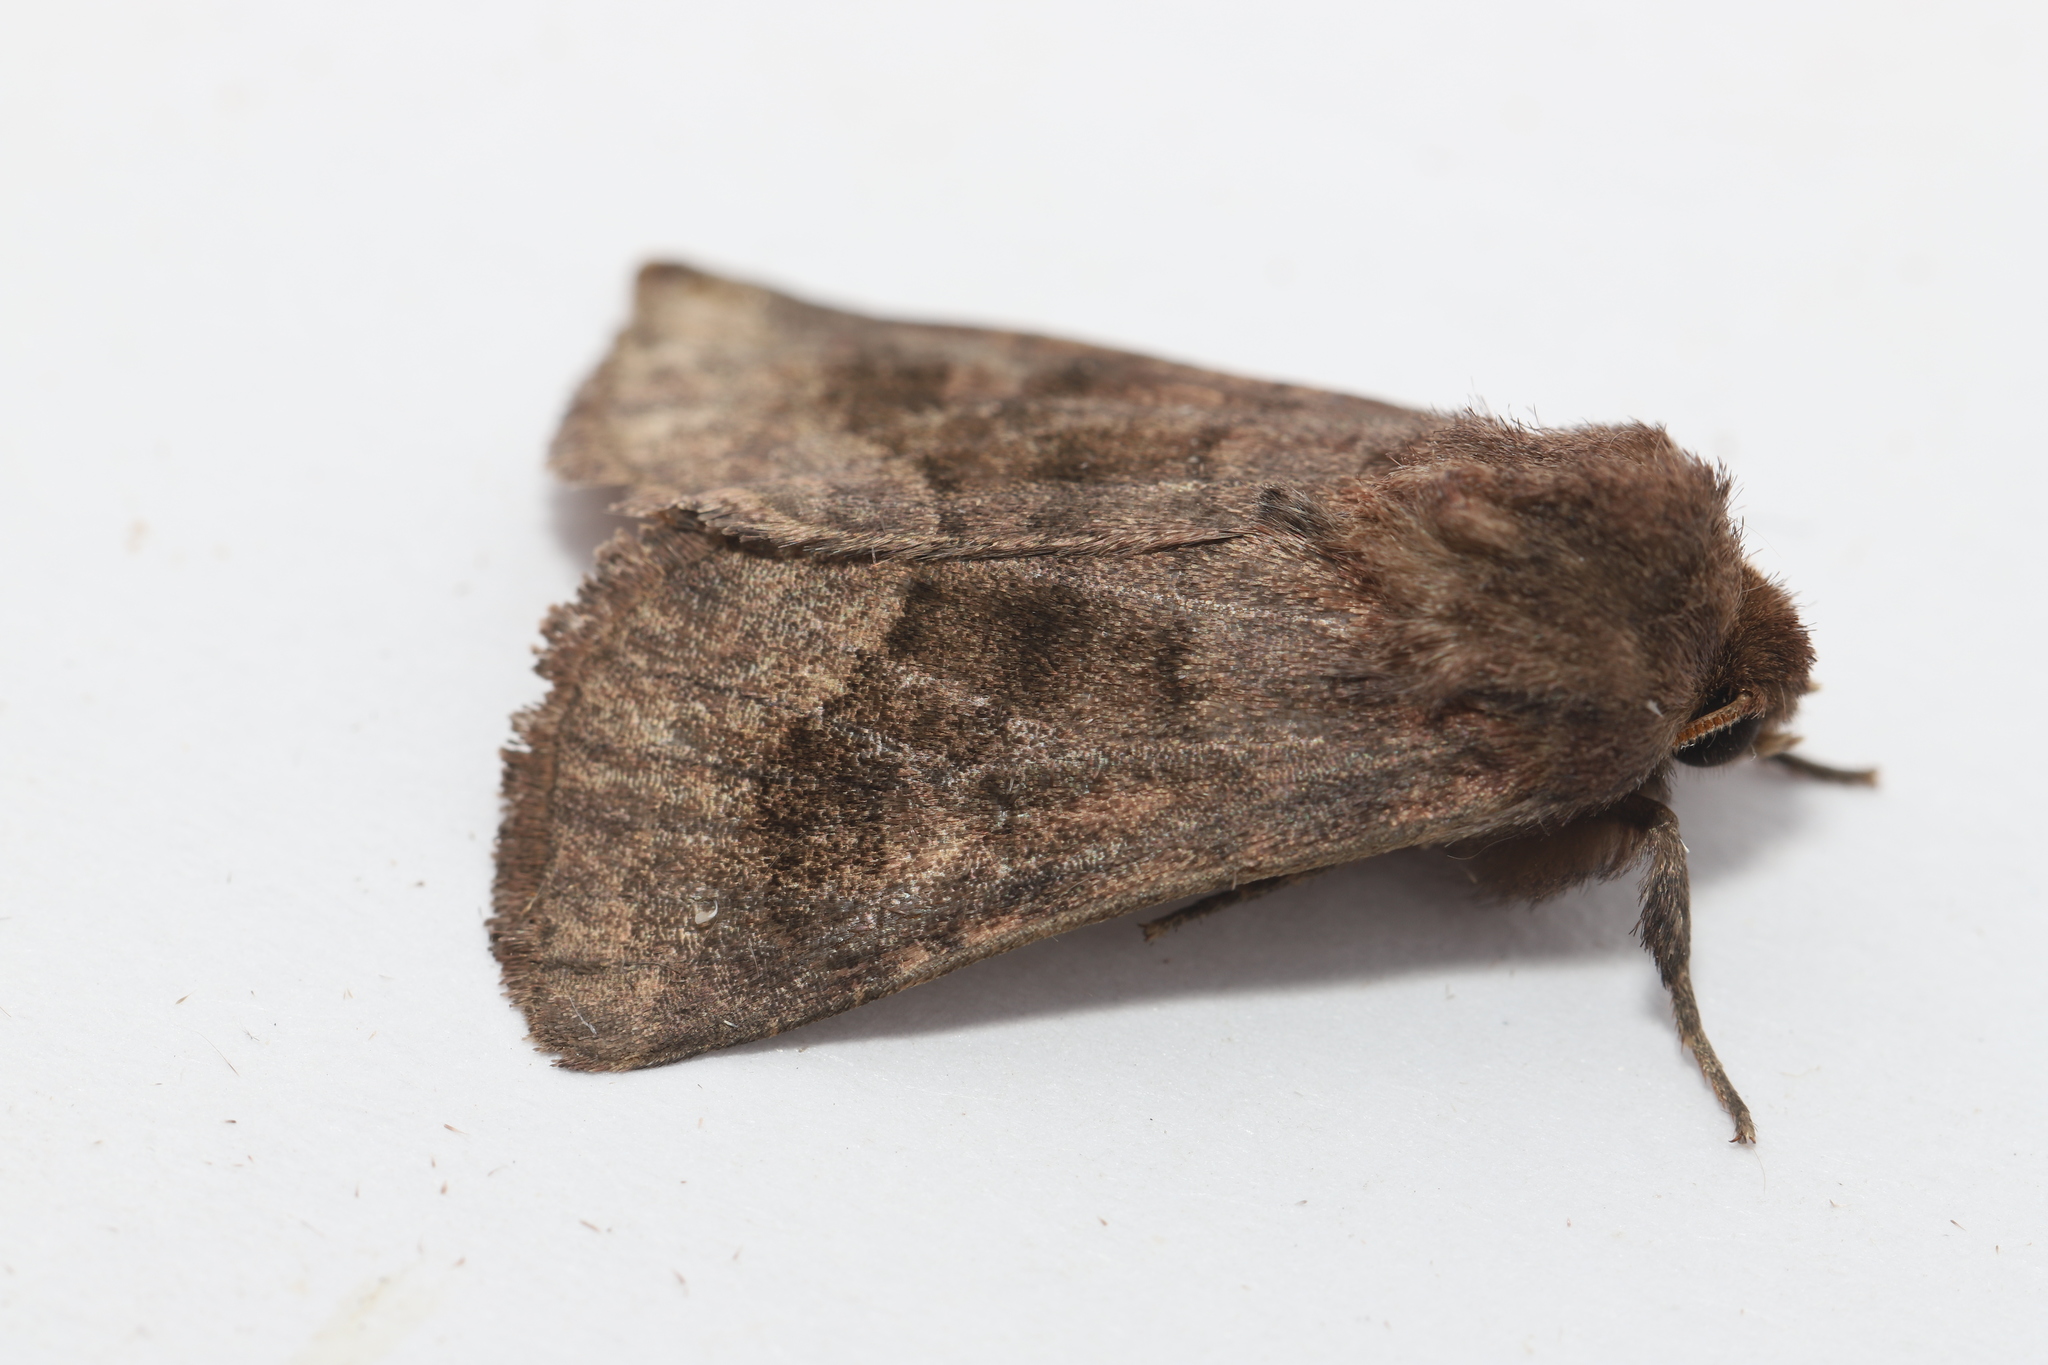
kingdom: Animalia
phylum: Arthropoda
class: Insecta
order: Lepidoptera
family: Noctuidae
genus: Nephelodes
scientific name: Nephelodes minians
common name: Bronzed cutworm
